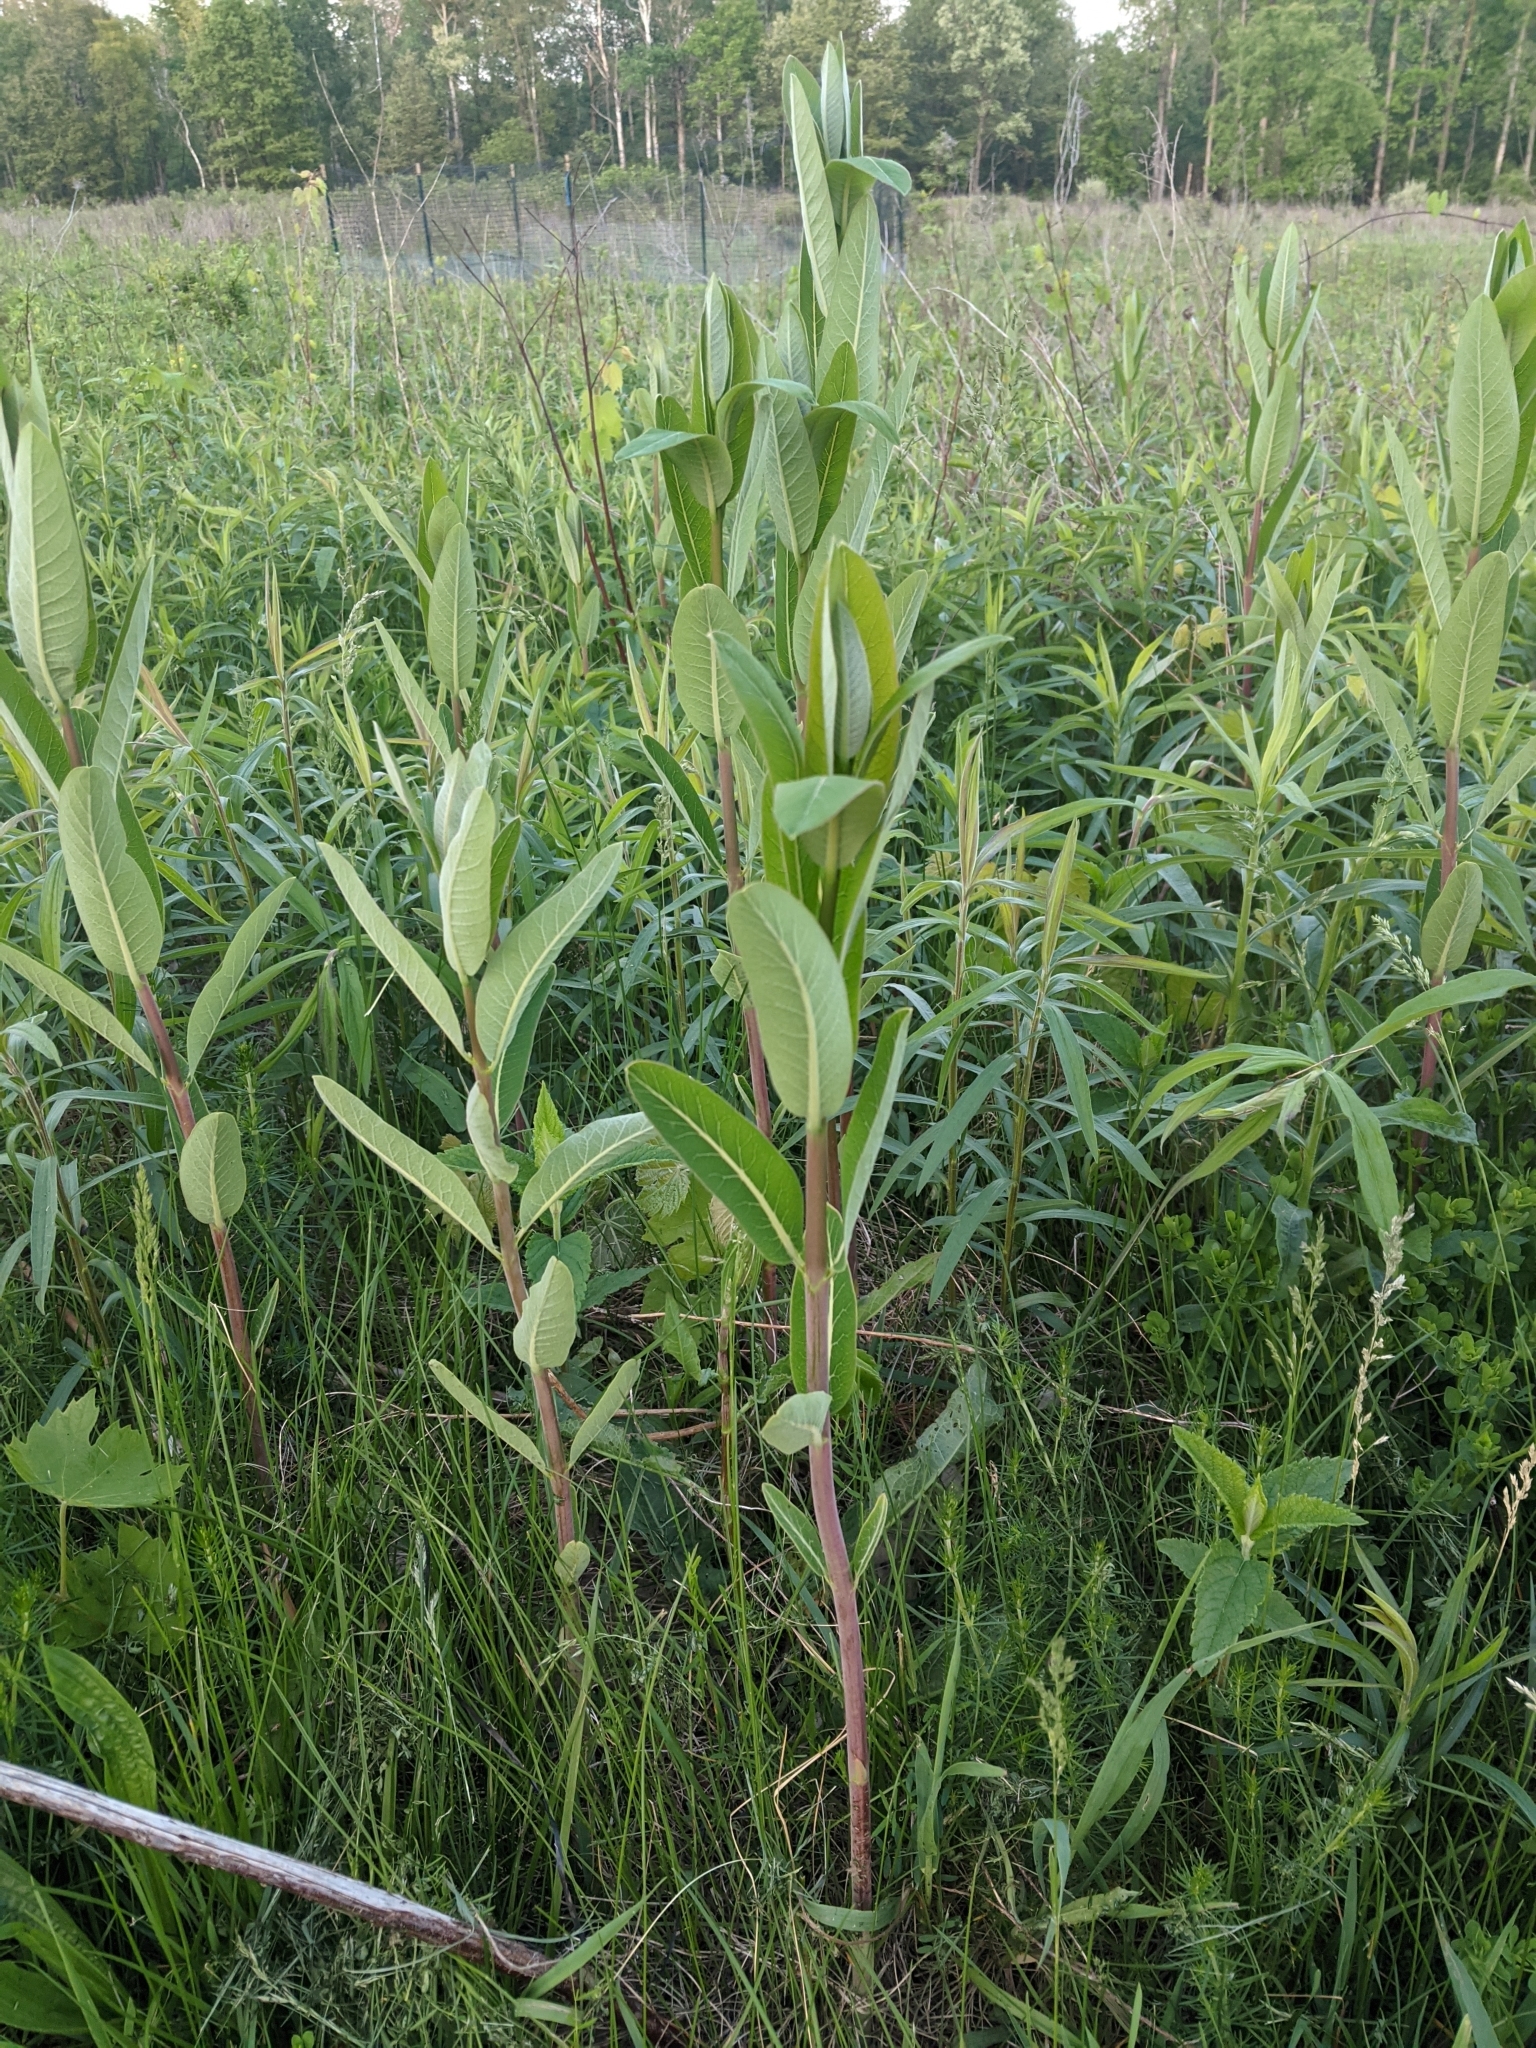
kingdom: Plantae
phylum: Tracheophyta
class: Magnoliopsida
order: Gentianales
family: Apocynaceae
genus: Apocynum
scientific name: Apocynum cannabinum
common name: Hemp dogbane
